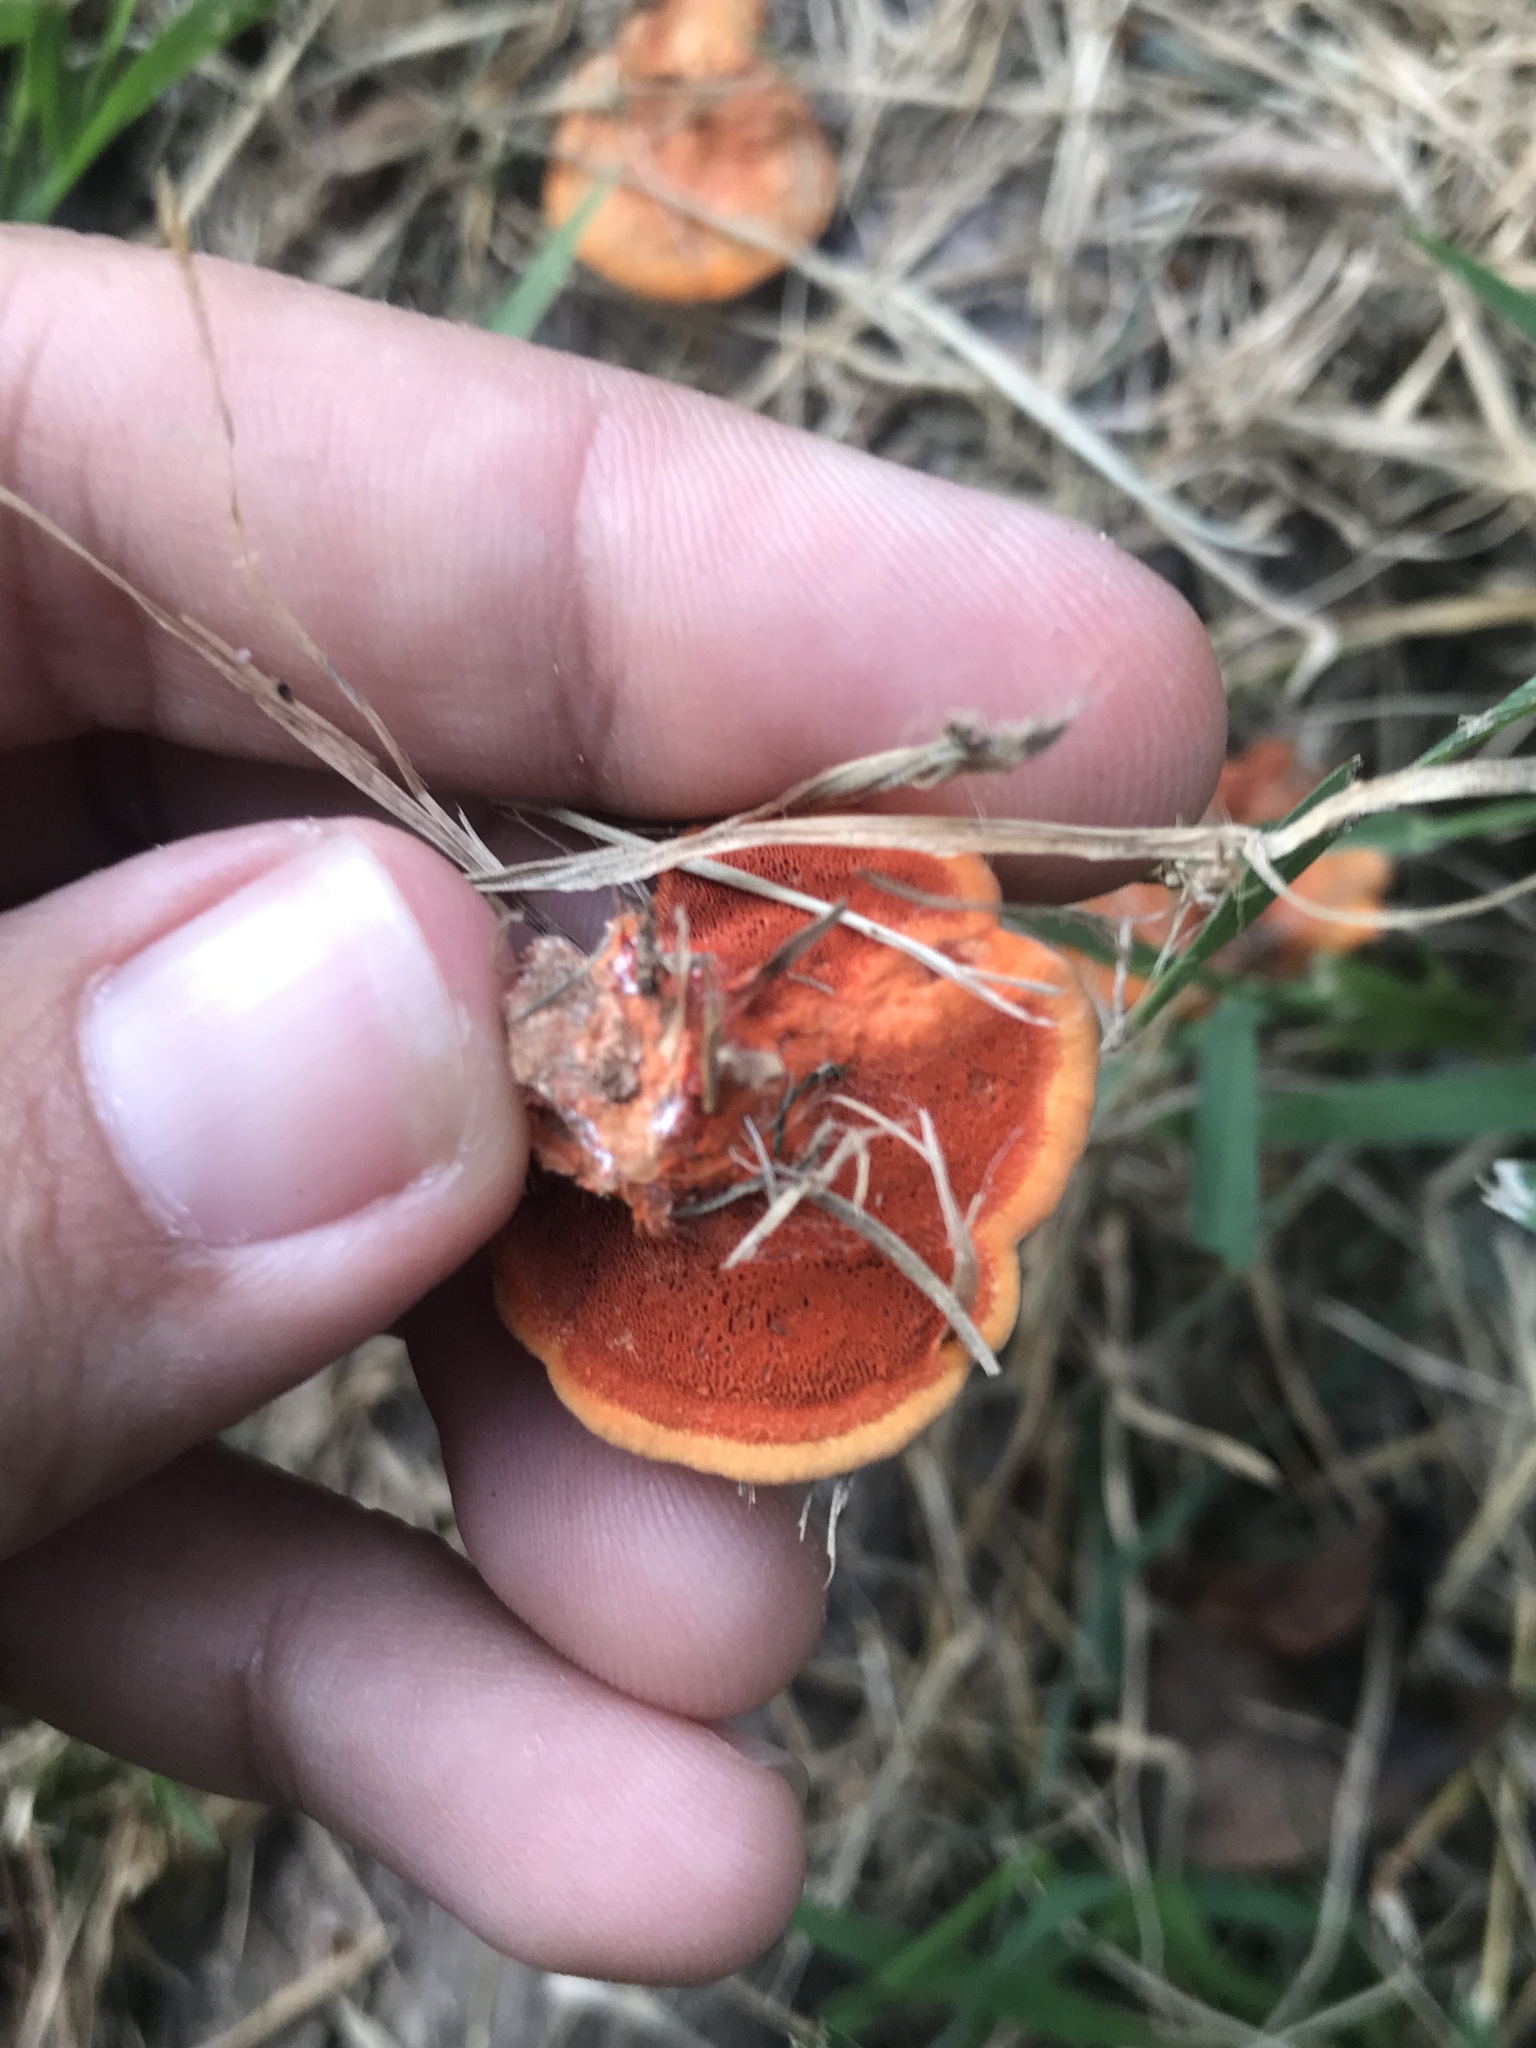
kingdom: Fungi
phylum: Basidiomycota
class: Agaricomycetes
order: Polyporales
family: Polyporaceae
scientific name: Polyporaceae
